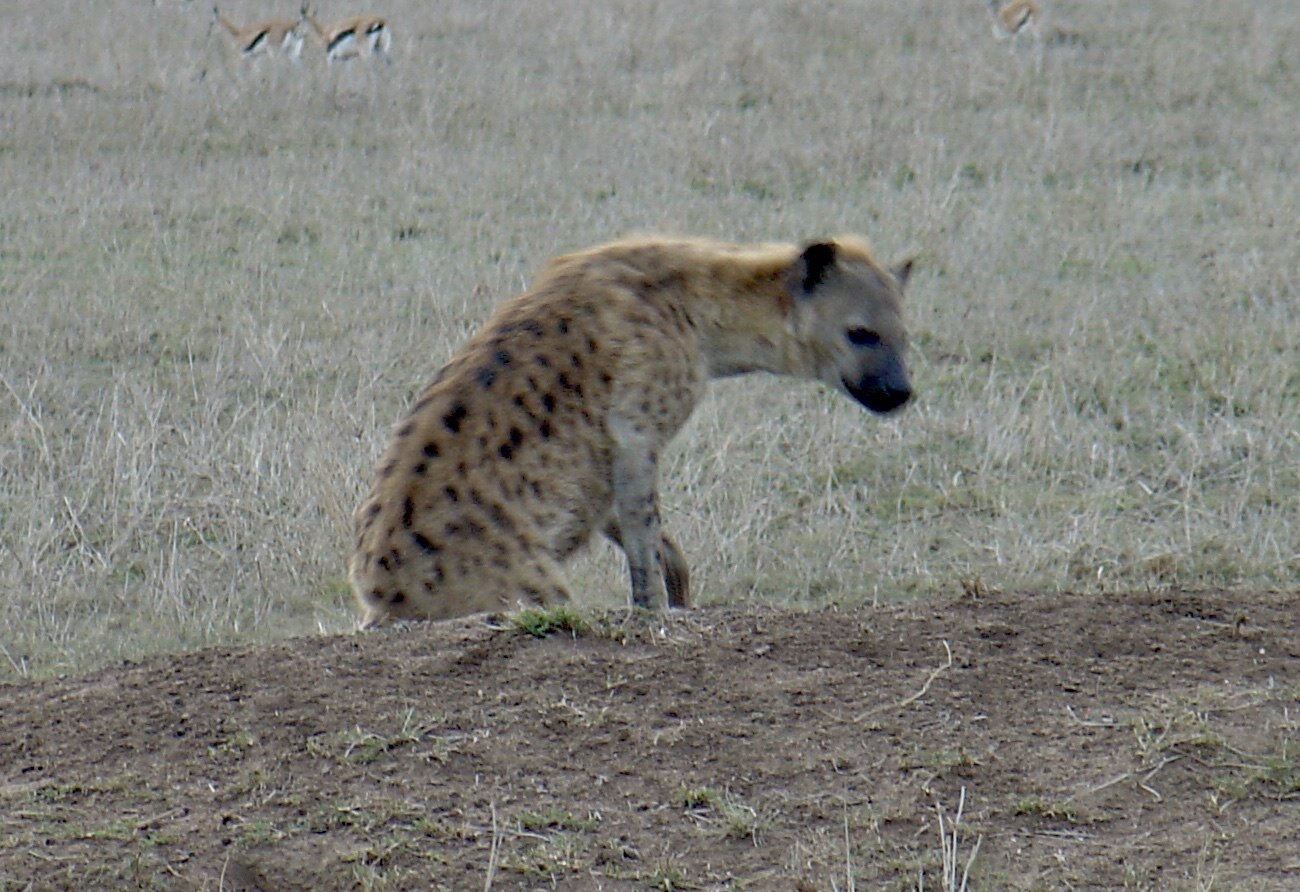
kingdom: Animalia
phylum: Chordata
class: Mammalia
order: Carnivora
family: Hyaenidae
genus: Crocuta
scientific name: Crocuta crocuta
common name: Spotted hyaena
